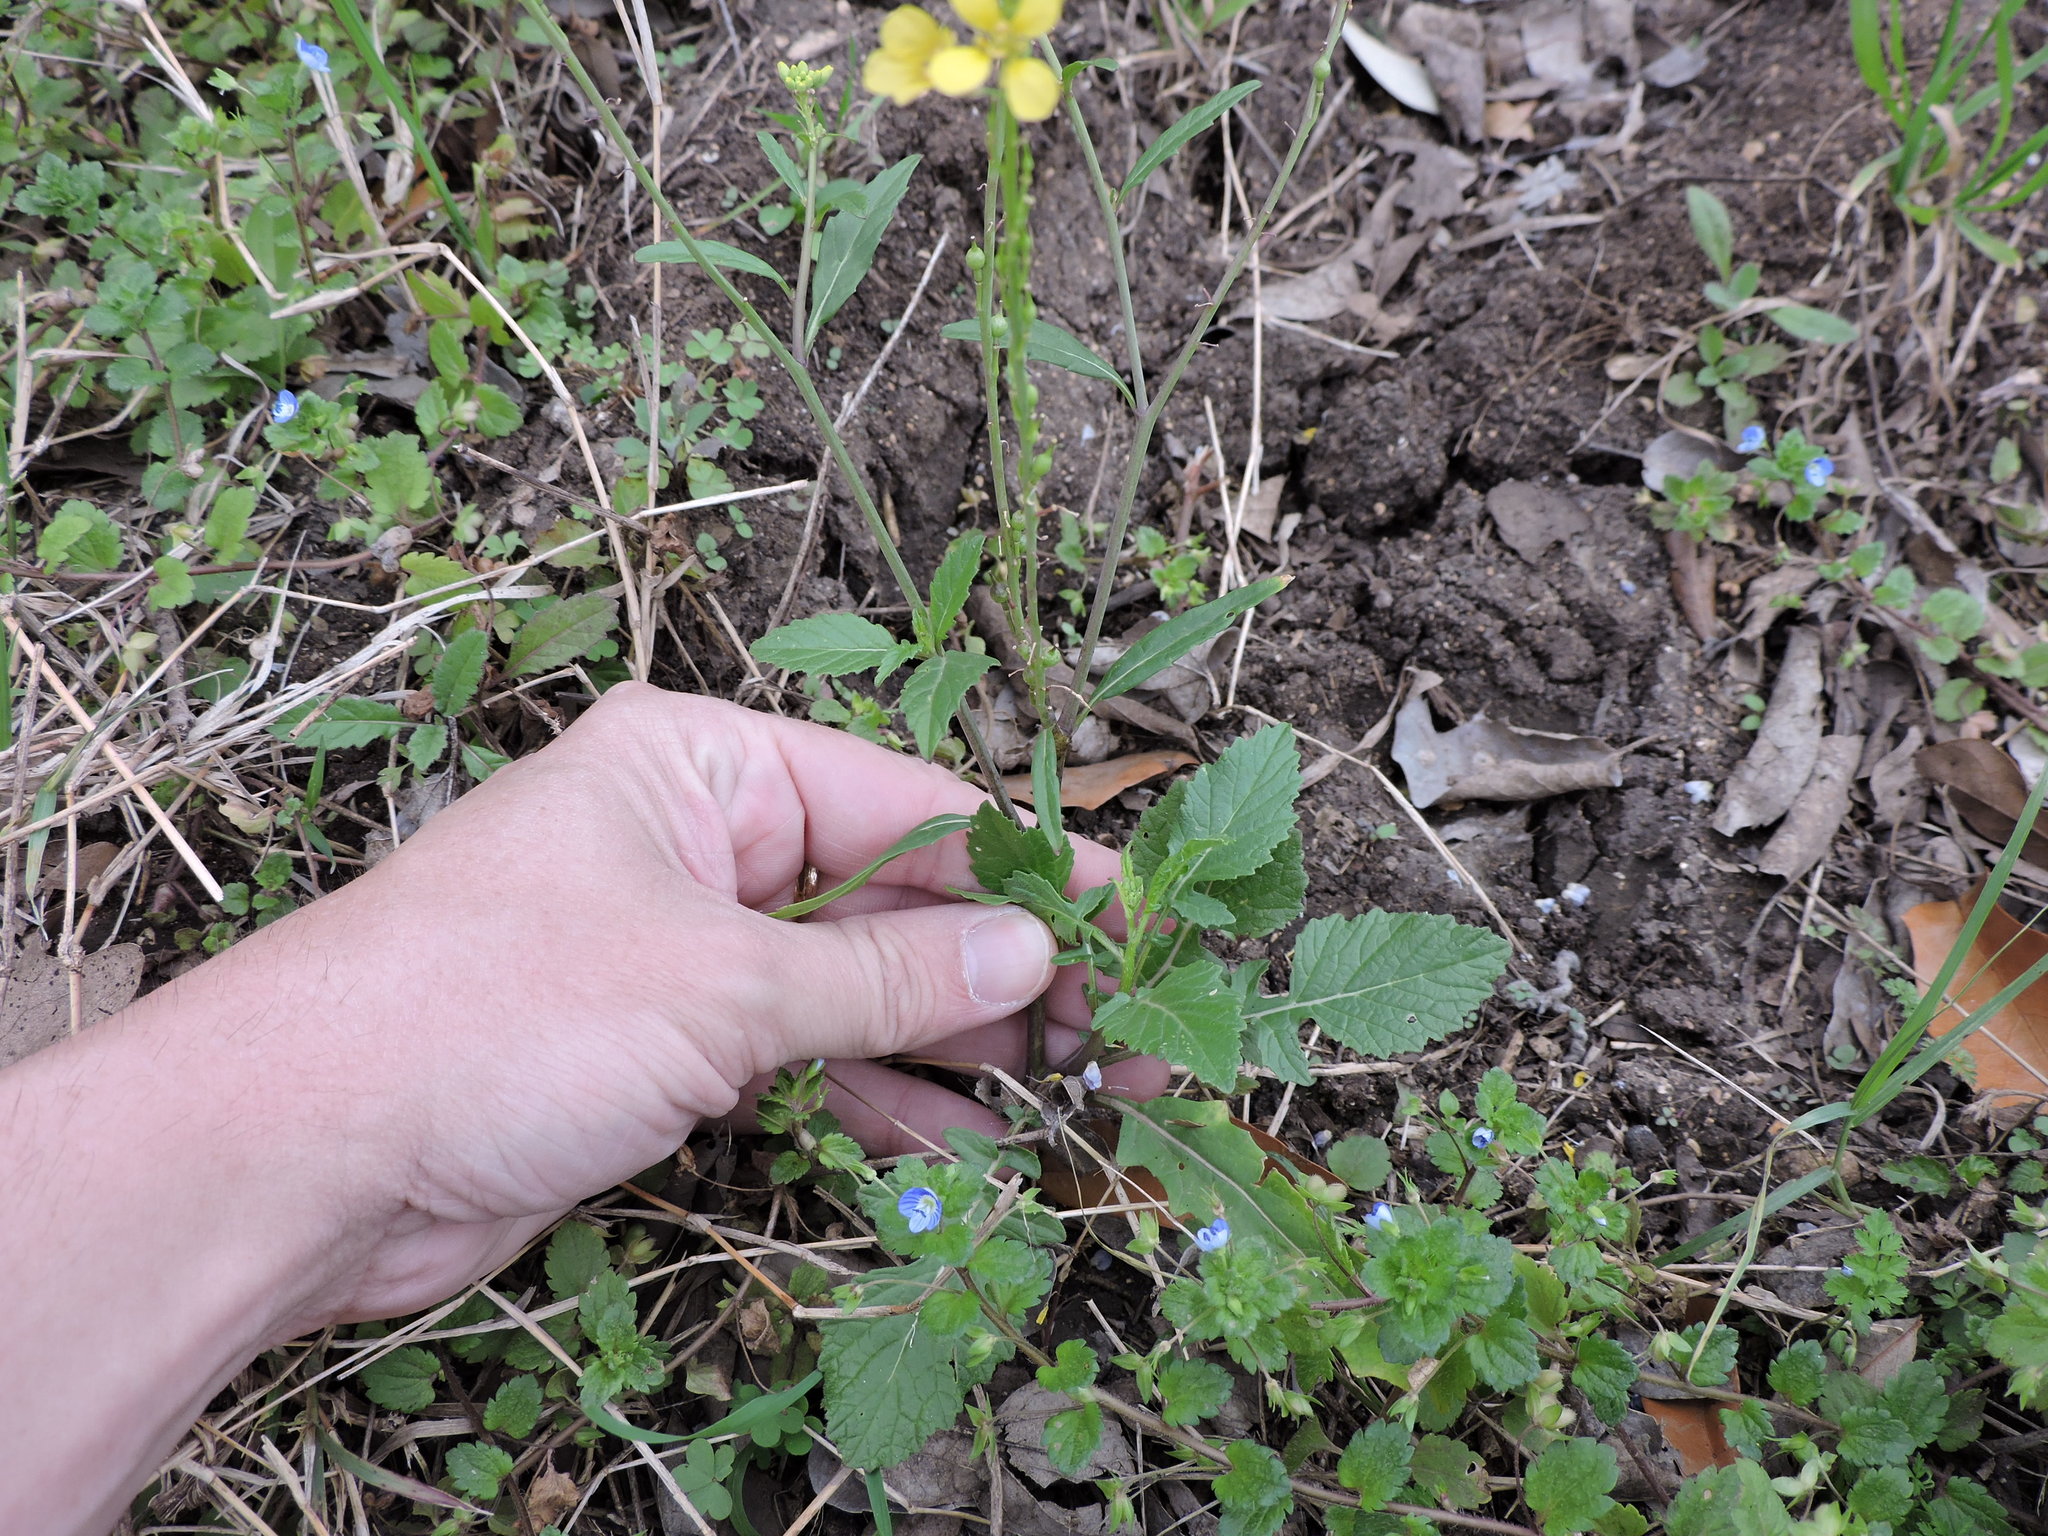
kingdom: Plantae
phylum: Tracheophyta
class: Magnoliopsida
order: Brassicales
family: Brassicaceae
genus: Rapistrum
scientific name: Rapistrum rugosum
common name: Annual bastardcabbage
